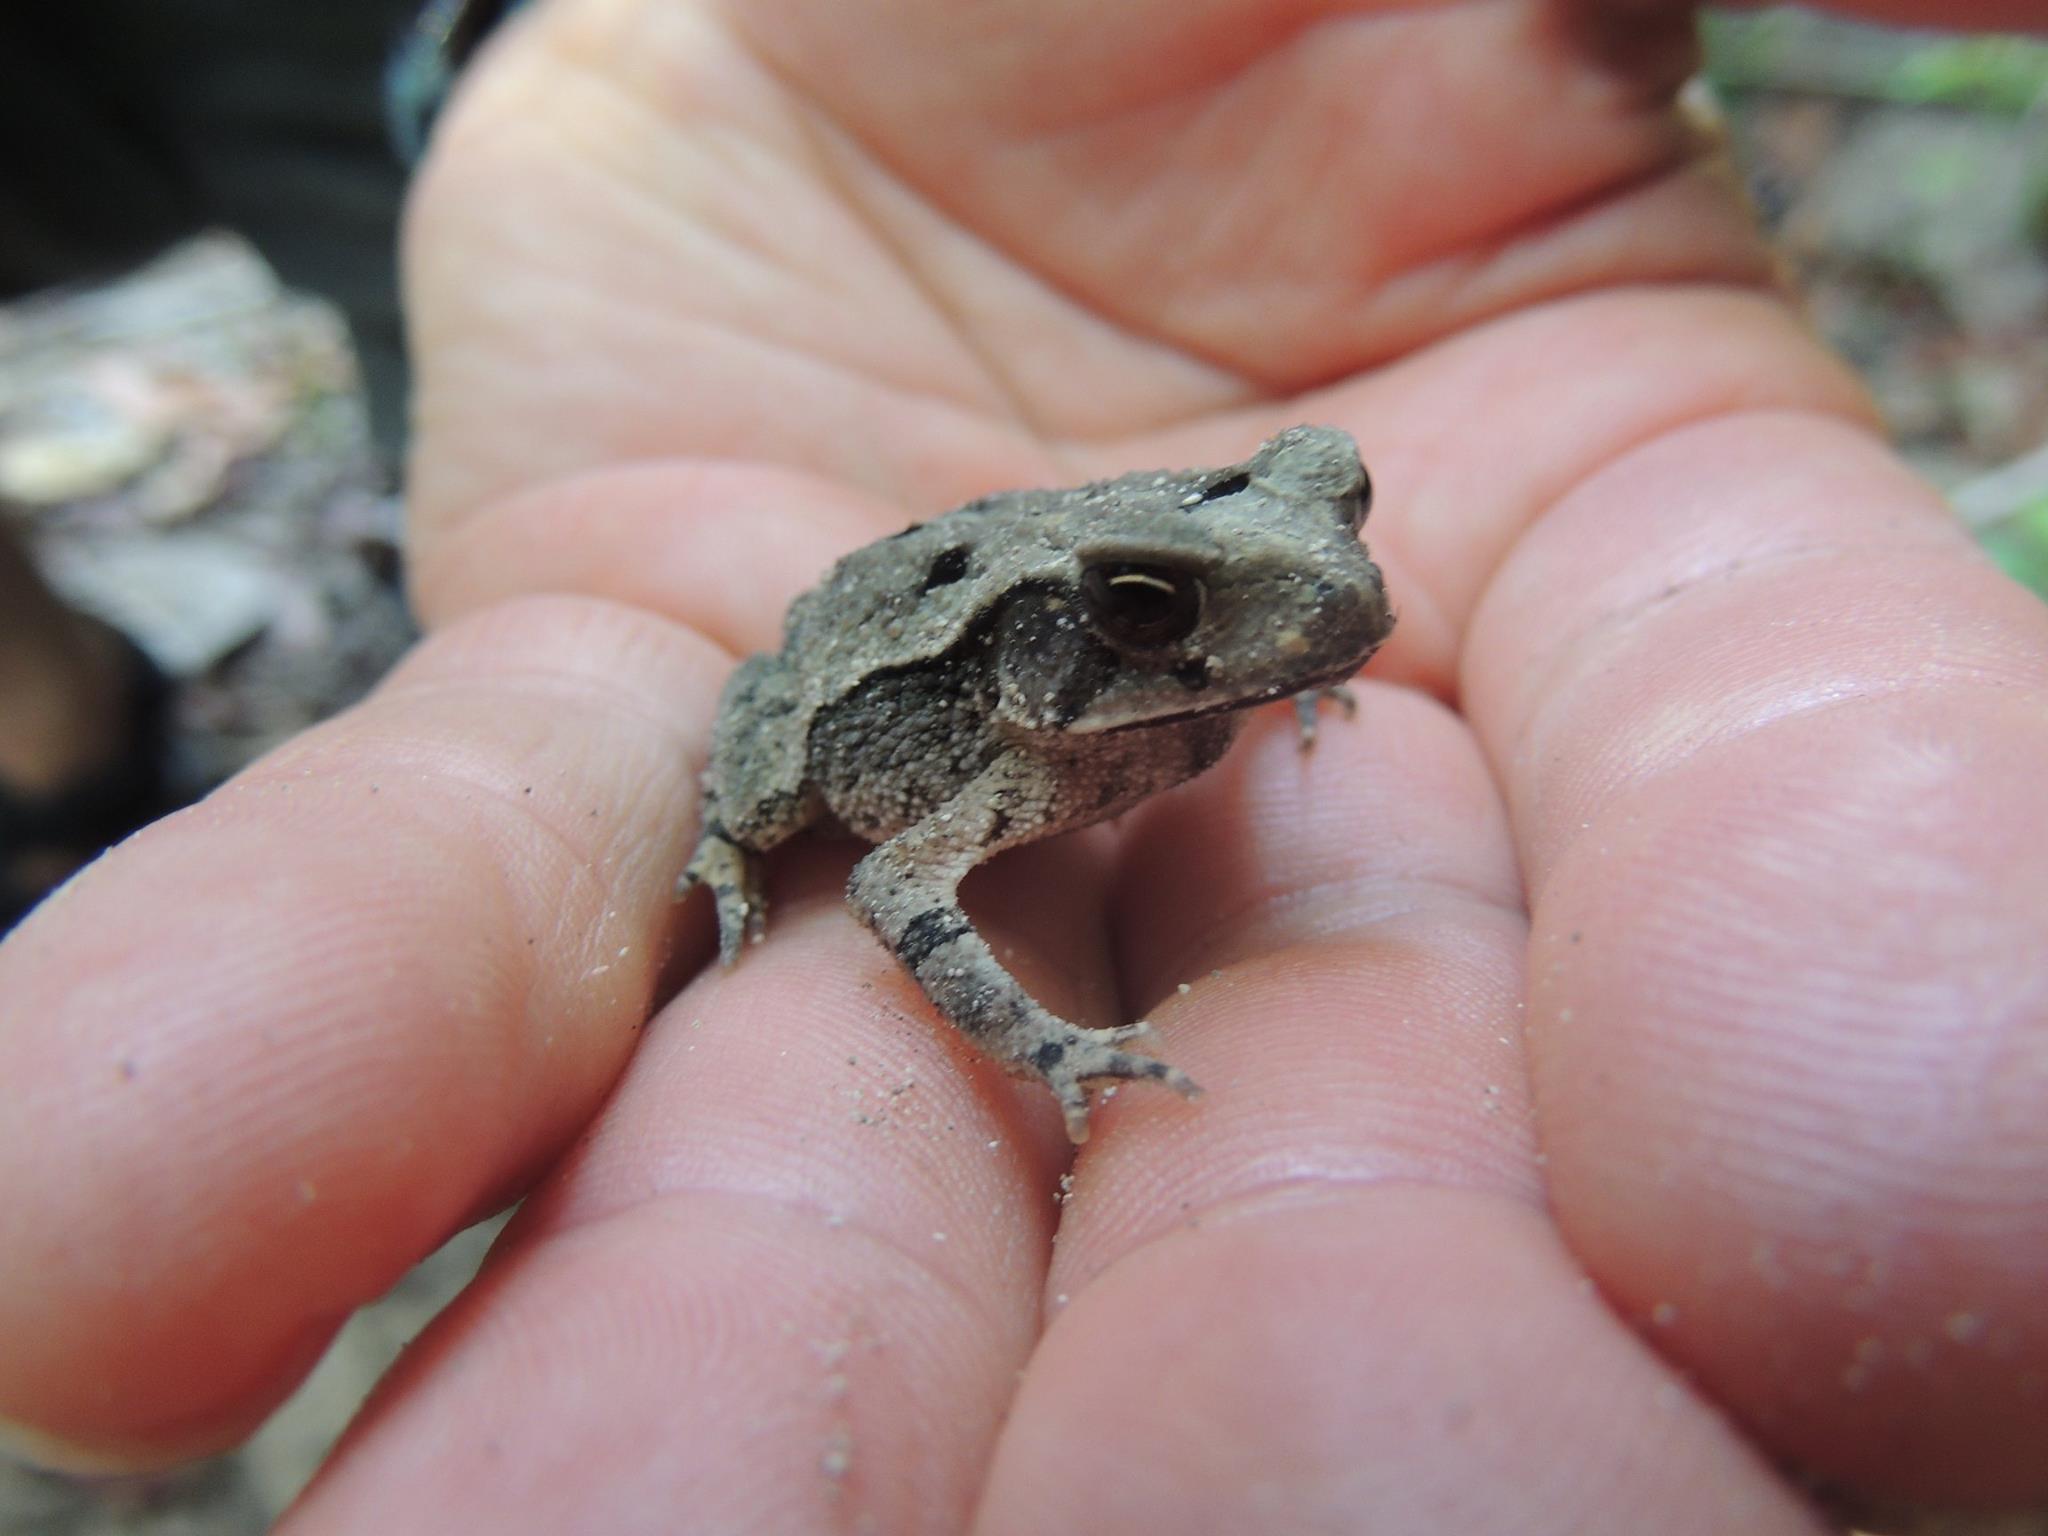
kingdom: Animalia
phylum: Chordata
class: Amphibia
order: Anura
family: Bufonidae
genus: Incilius
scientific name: Incilius valliceps
